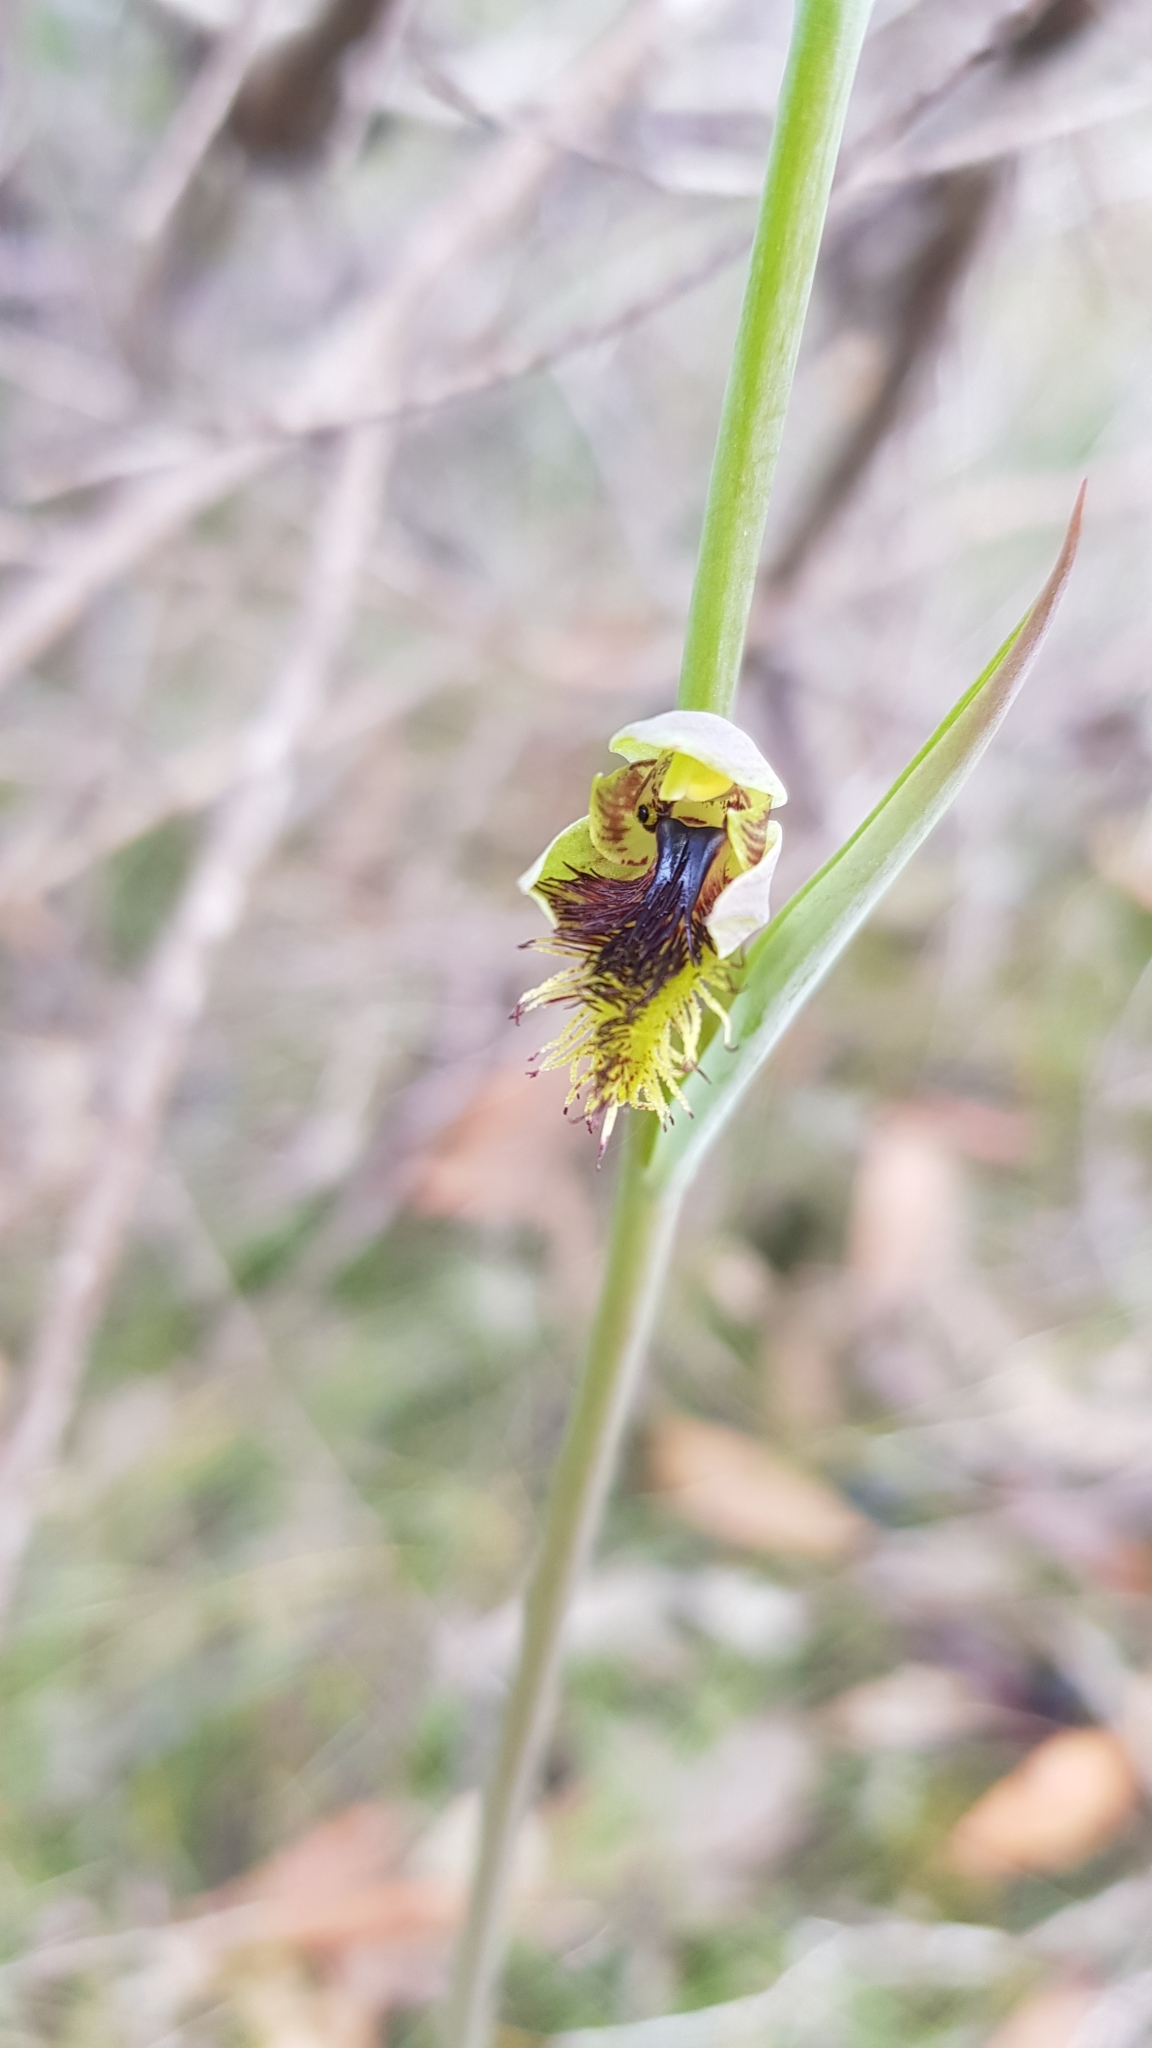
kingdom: Plantae
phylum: Tracheophyta
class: Liliopsida
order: Asparagales
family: Orchidaceae
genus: Calochilus
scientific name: Calochilus campestris
